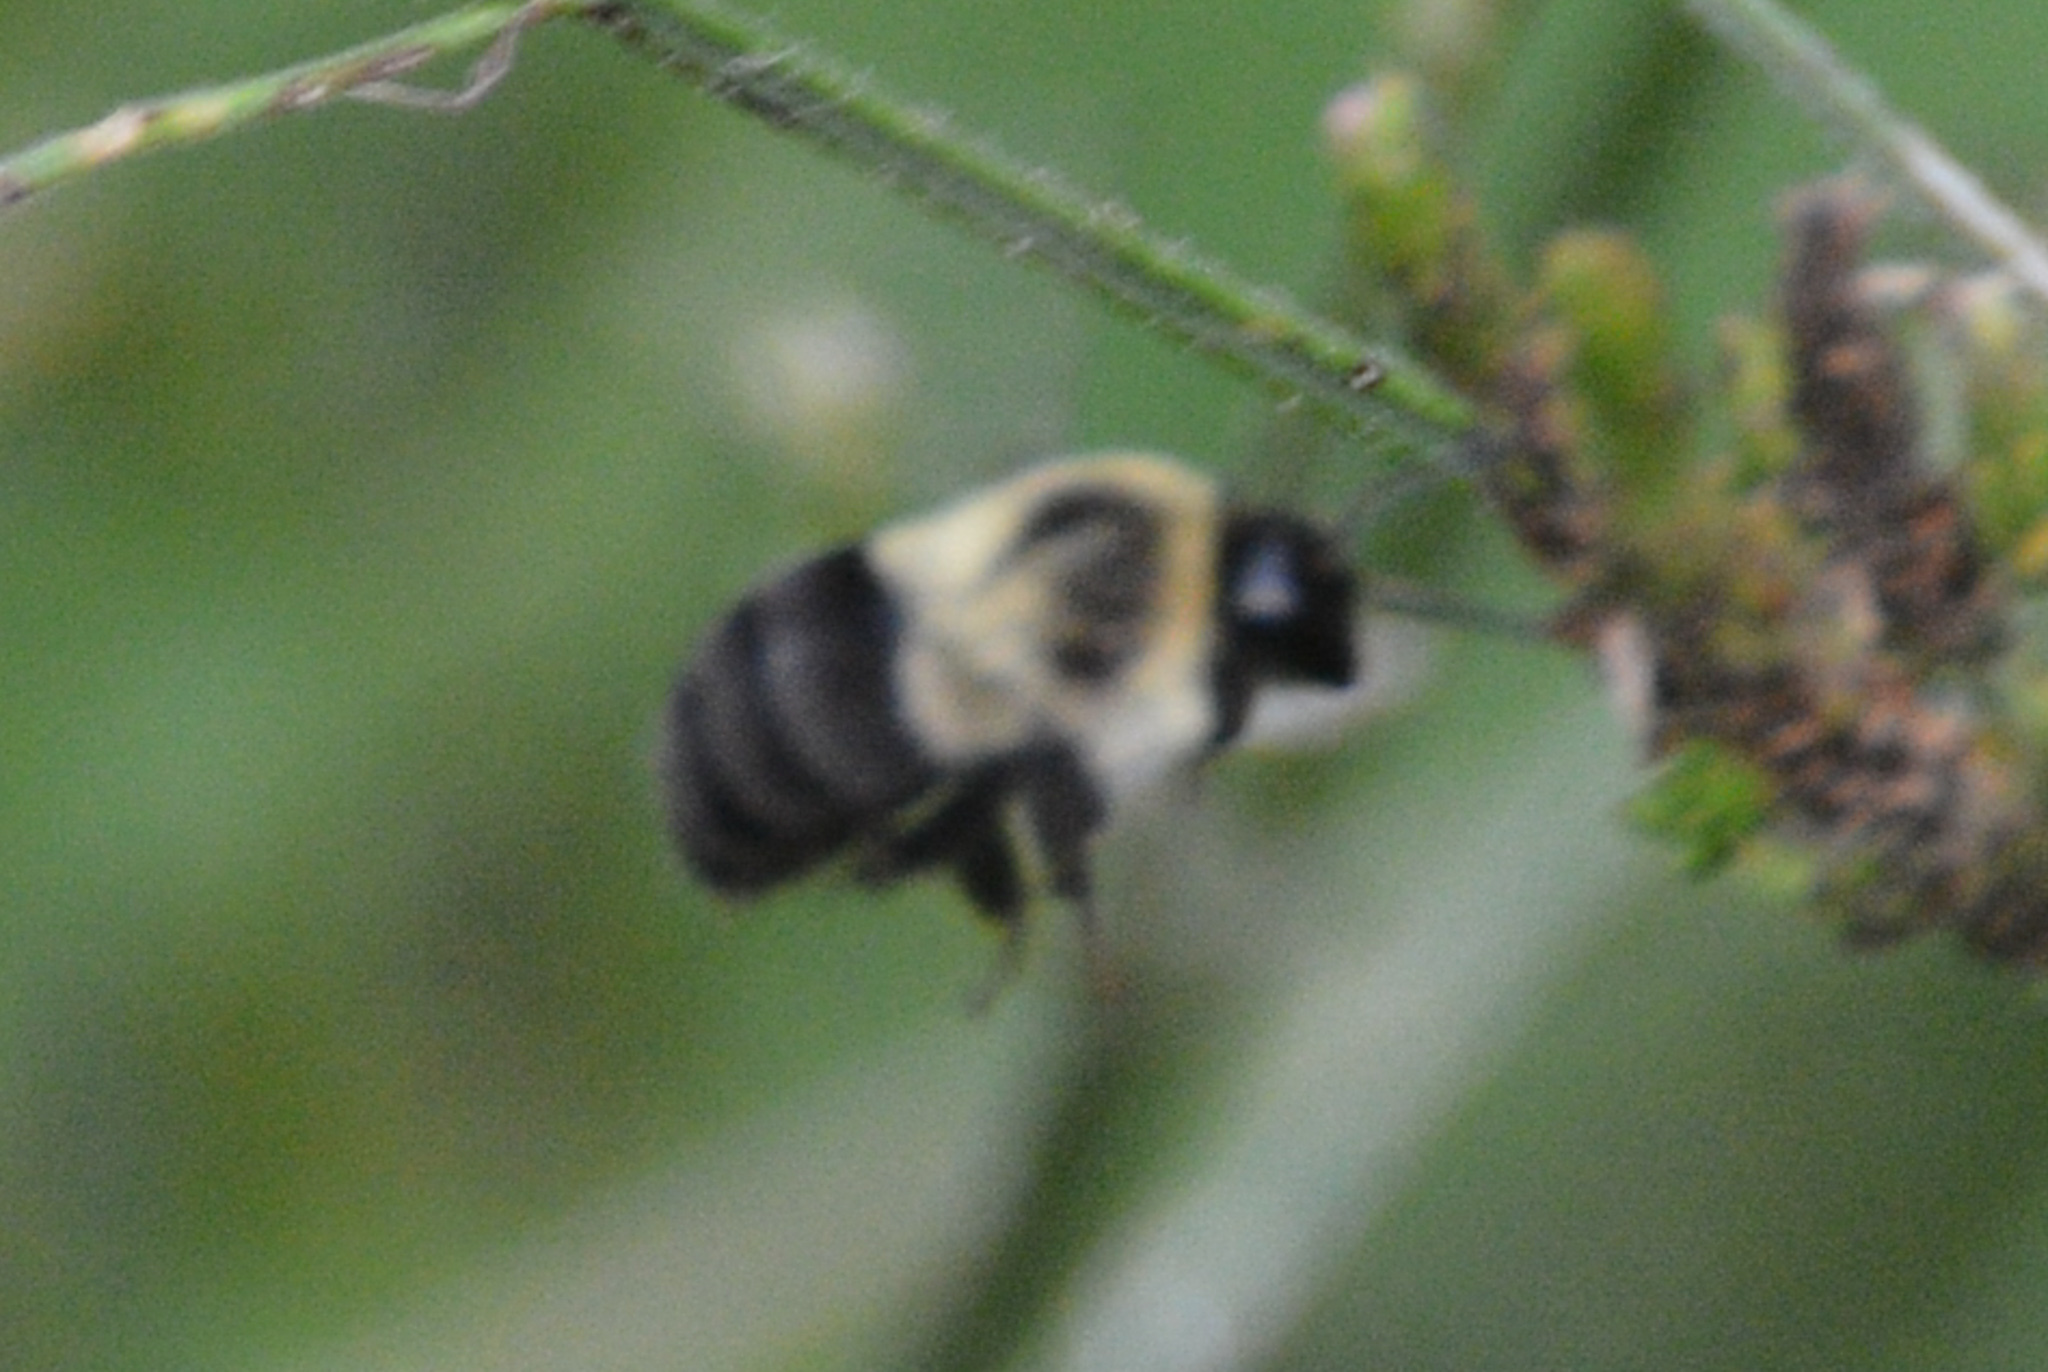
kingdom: Animalia
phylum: Arthropoda
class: Insecta
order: Hymenoptera
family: Apidae
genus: Bombus
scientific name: Bombus impatiens
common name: Common eastern bumble bee
